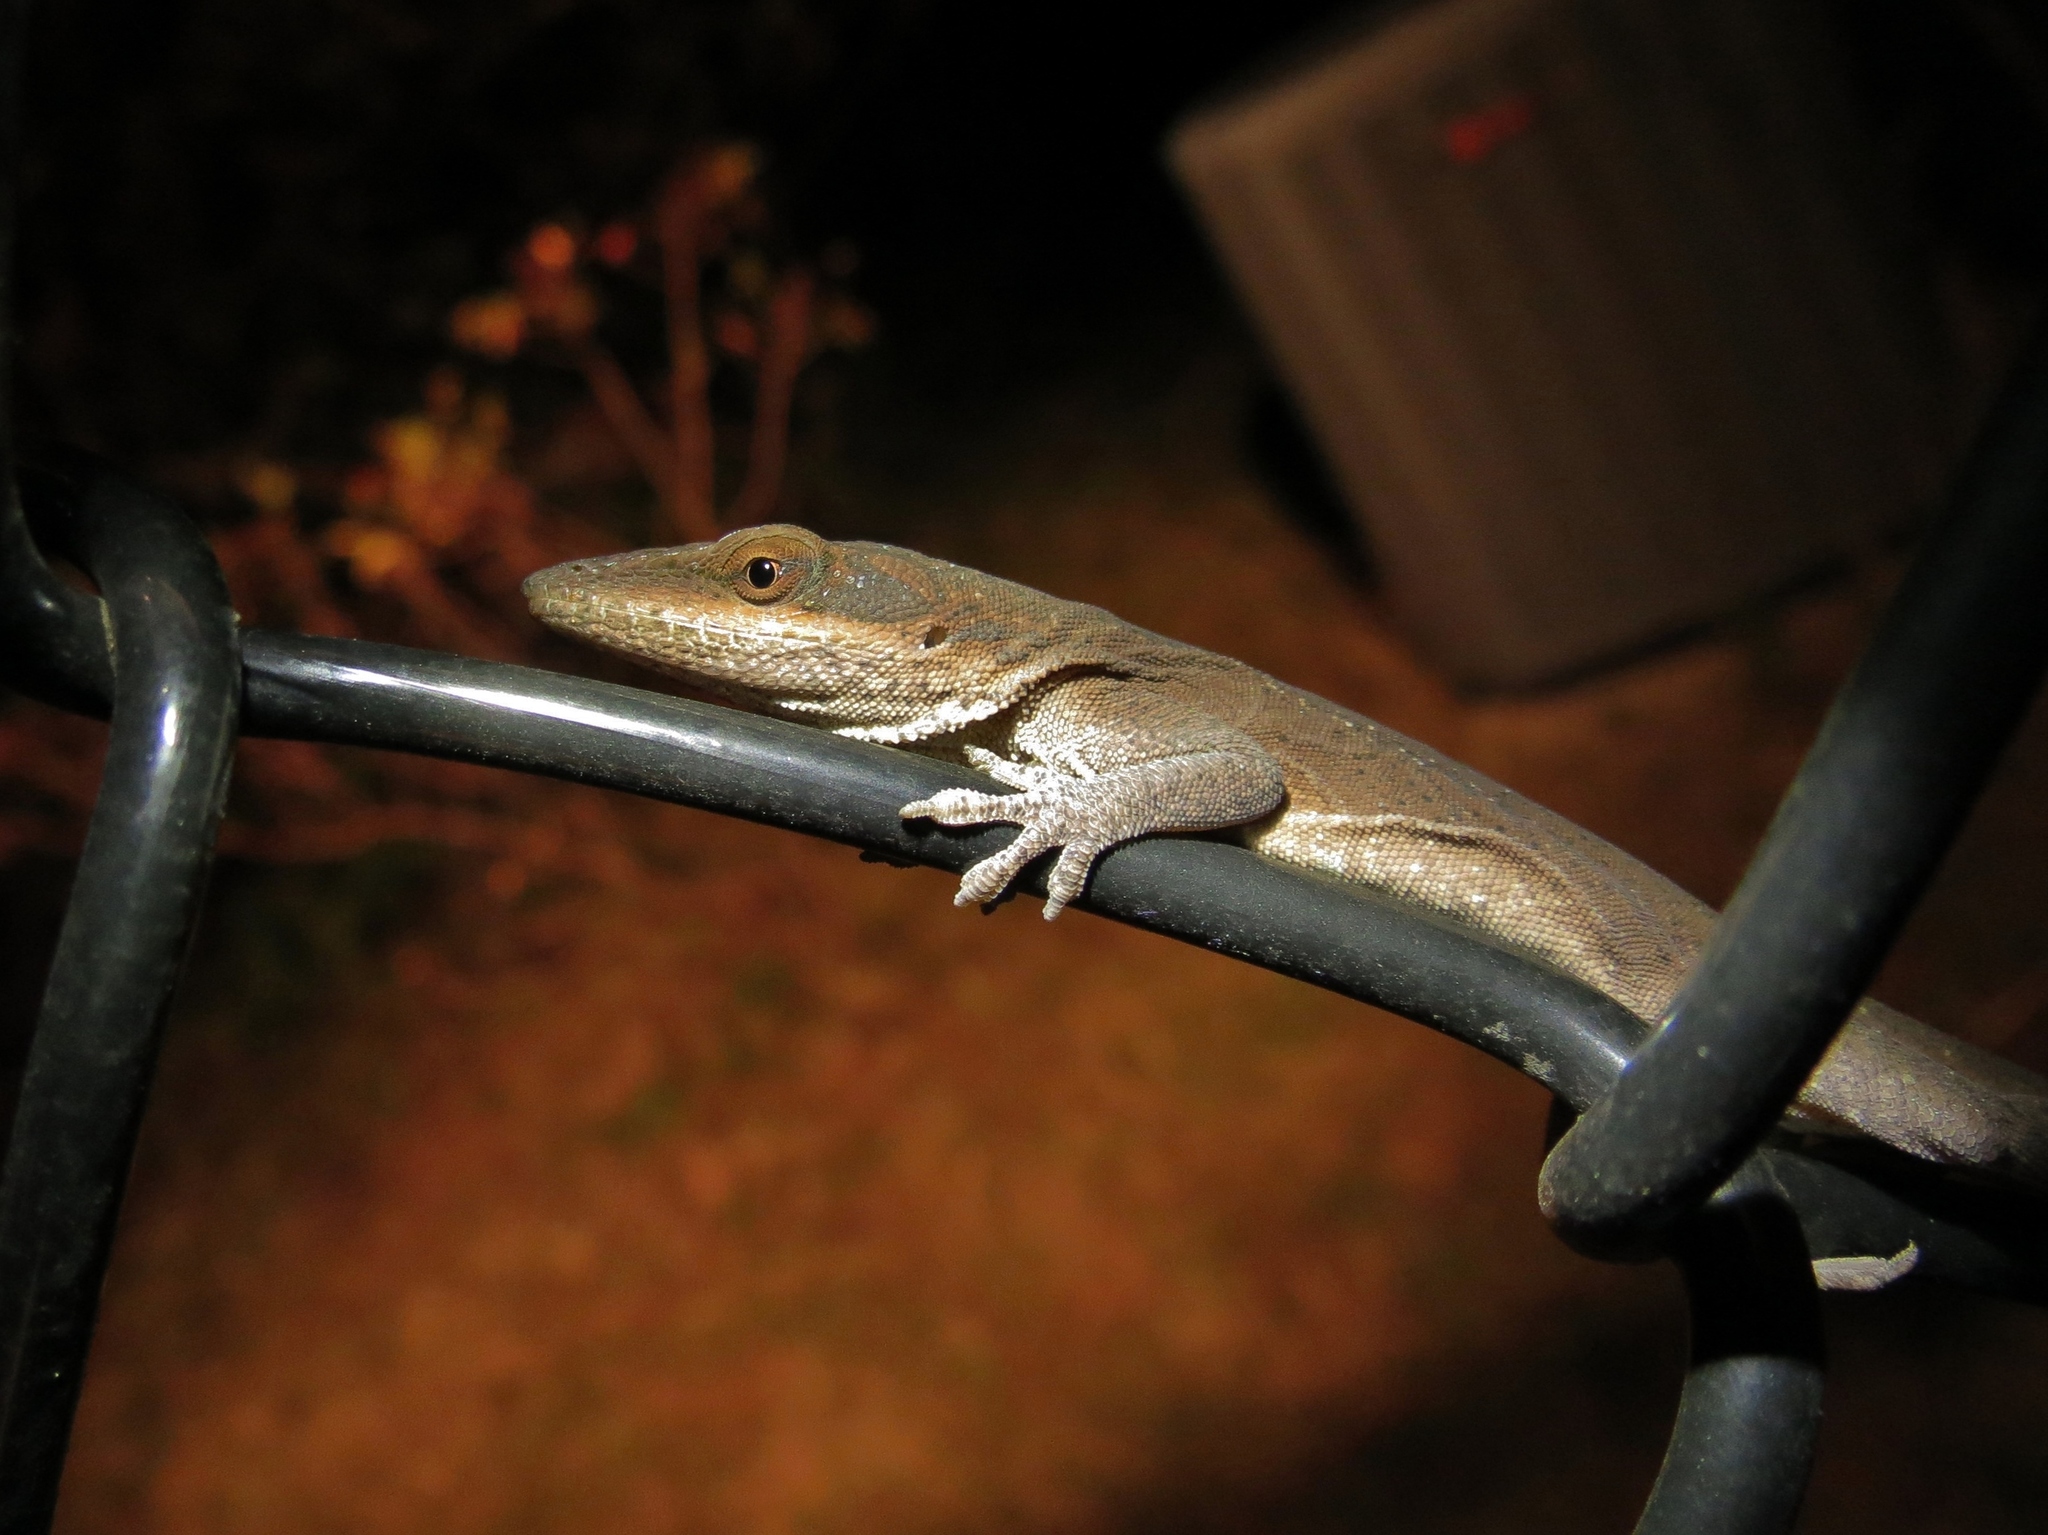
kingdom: Animalia
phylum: Chordata
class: Squamata
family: Dactyloidae
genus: Anolis
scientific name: Anolis carolinensis
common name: Green anole
